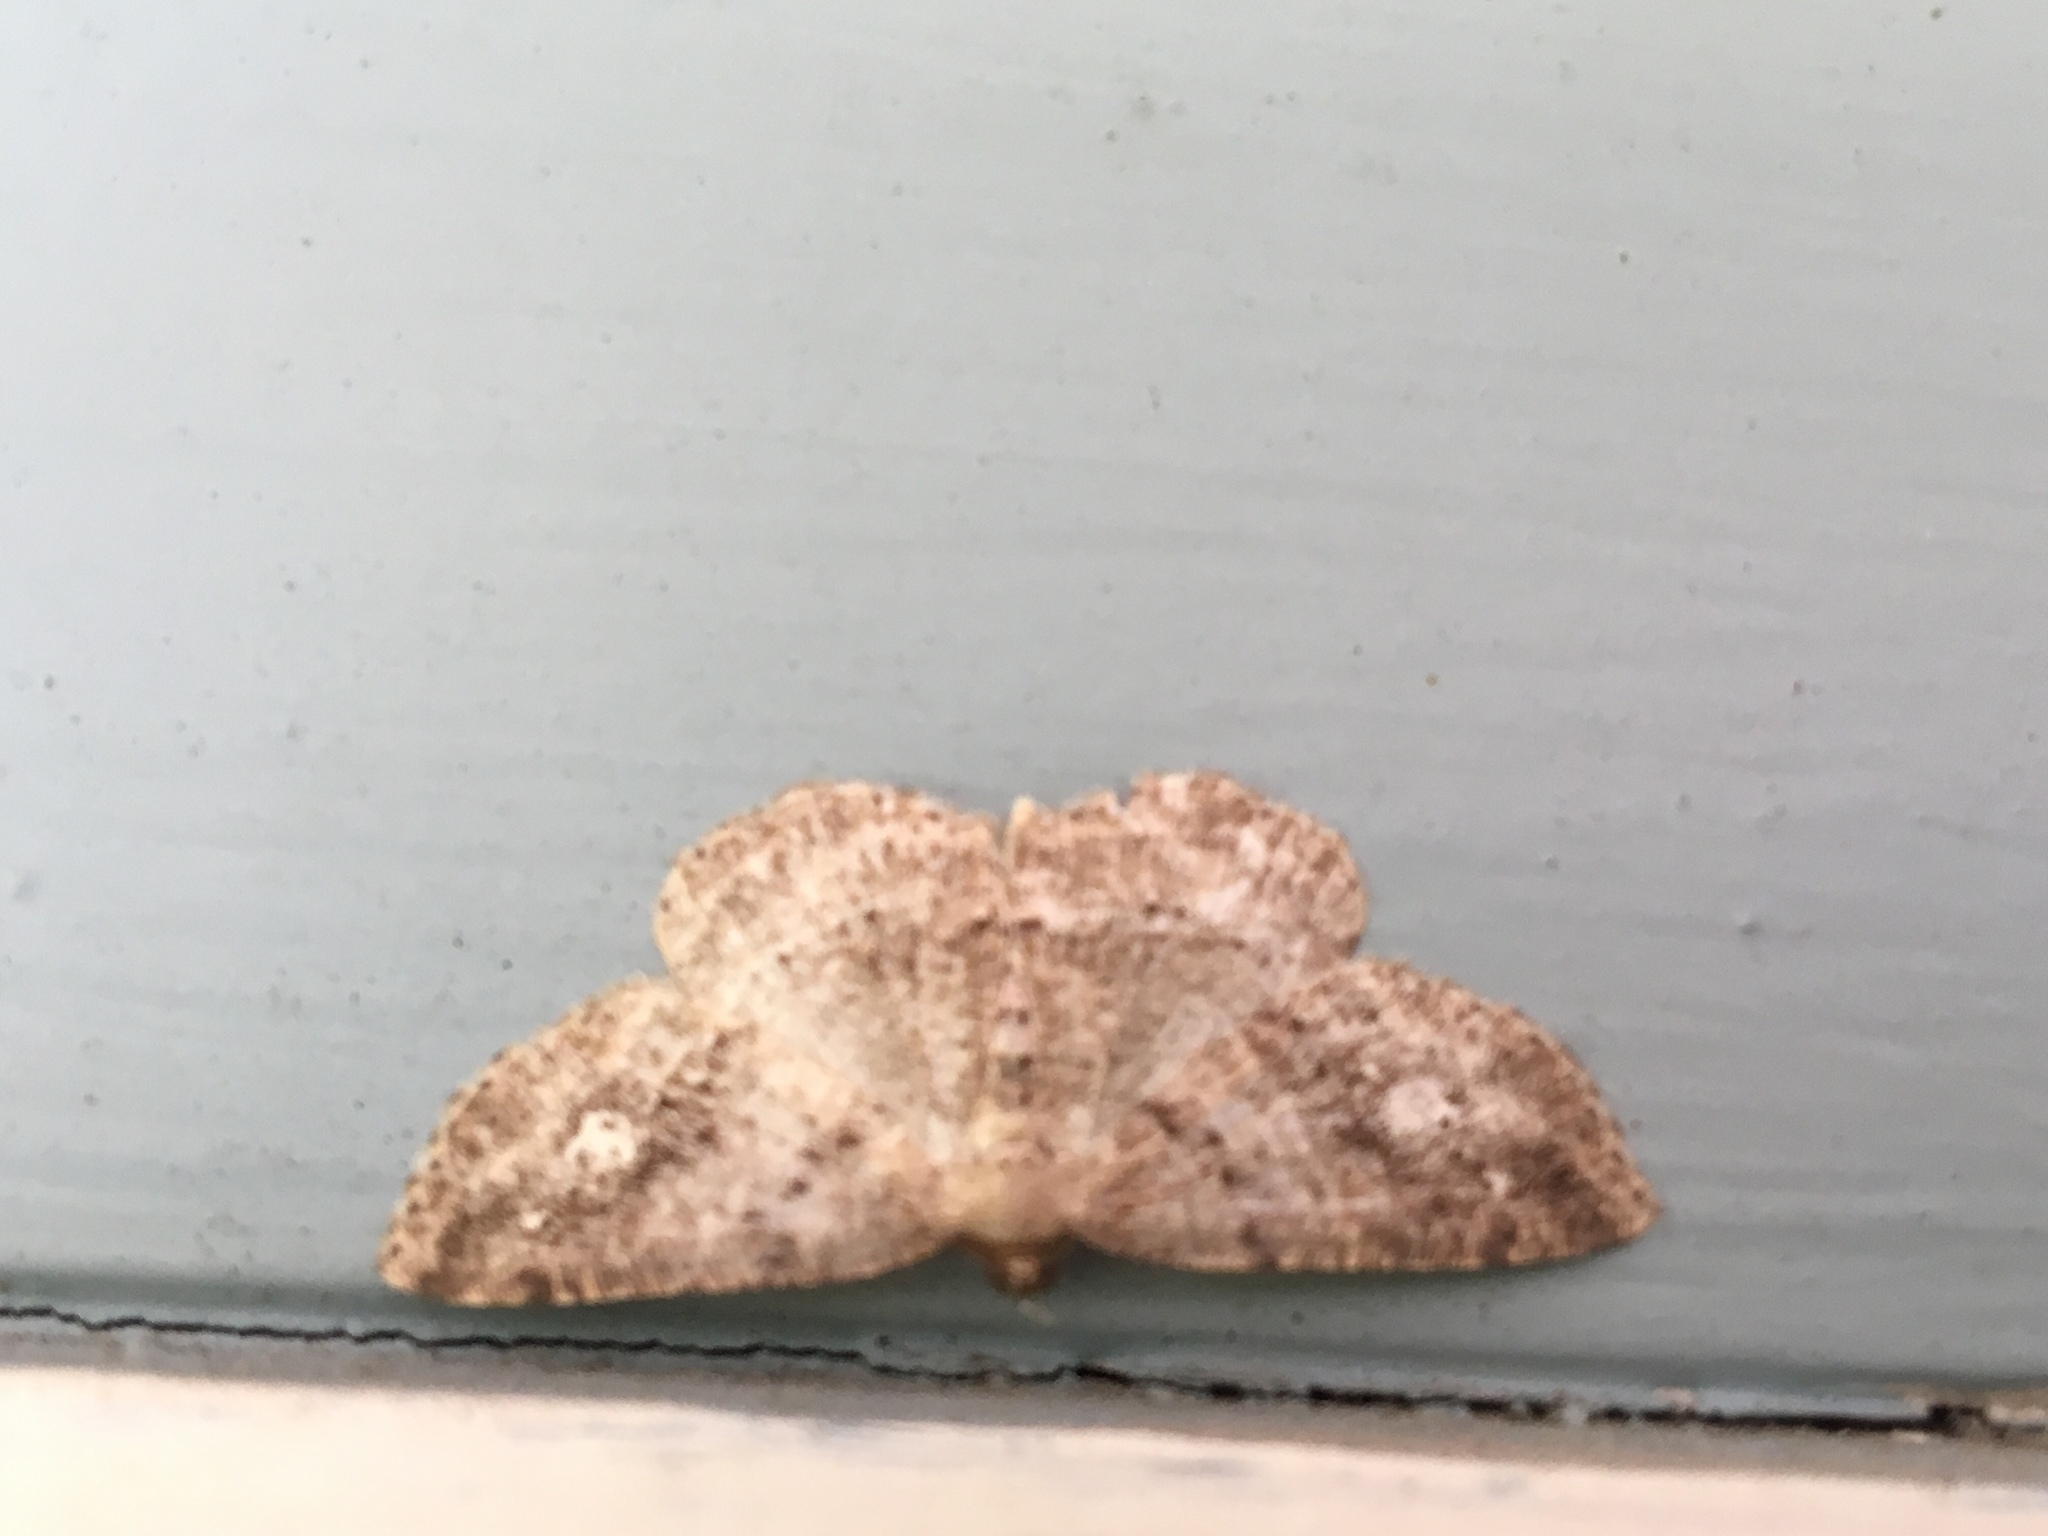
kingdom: Animalia
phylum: Arthropoda
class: Insecta
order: Lepidoptera
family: Geometridae
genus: Homochlodes
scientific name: Homochlodes fritillaria
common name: Pale homochlodes
